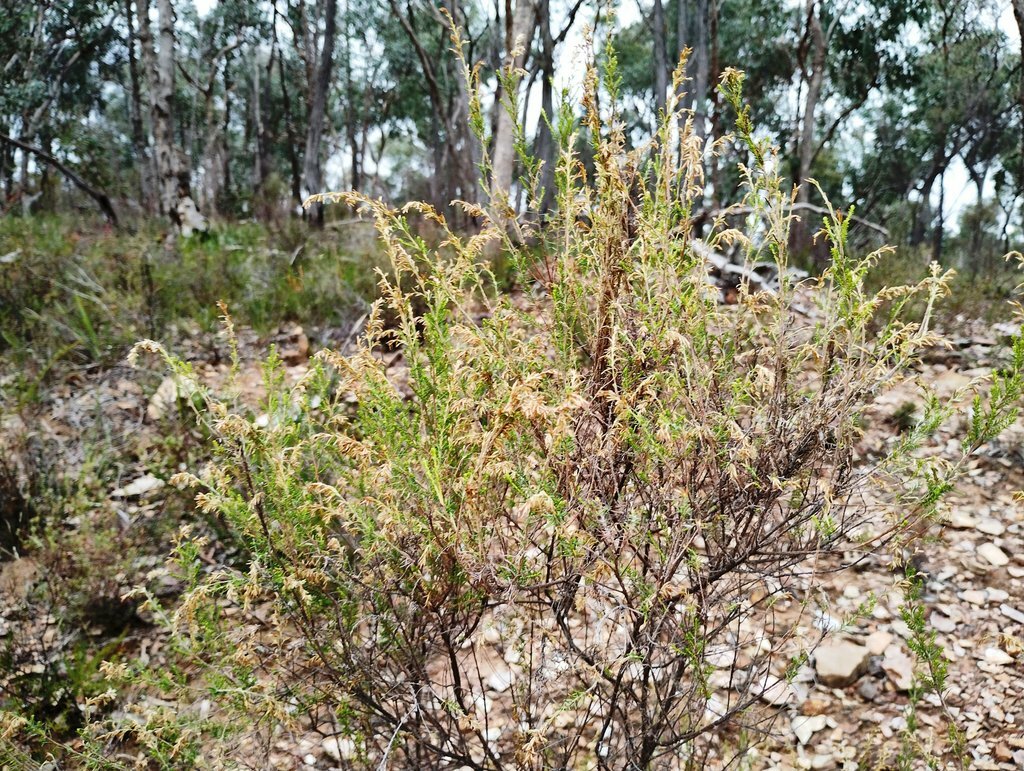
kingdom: Plantae
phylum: Tracheophyta
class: Magnoliopsida
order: Asterales
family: Asteraceae
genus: Cassinia
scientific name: Cassinia sifton
